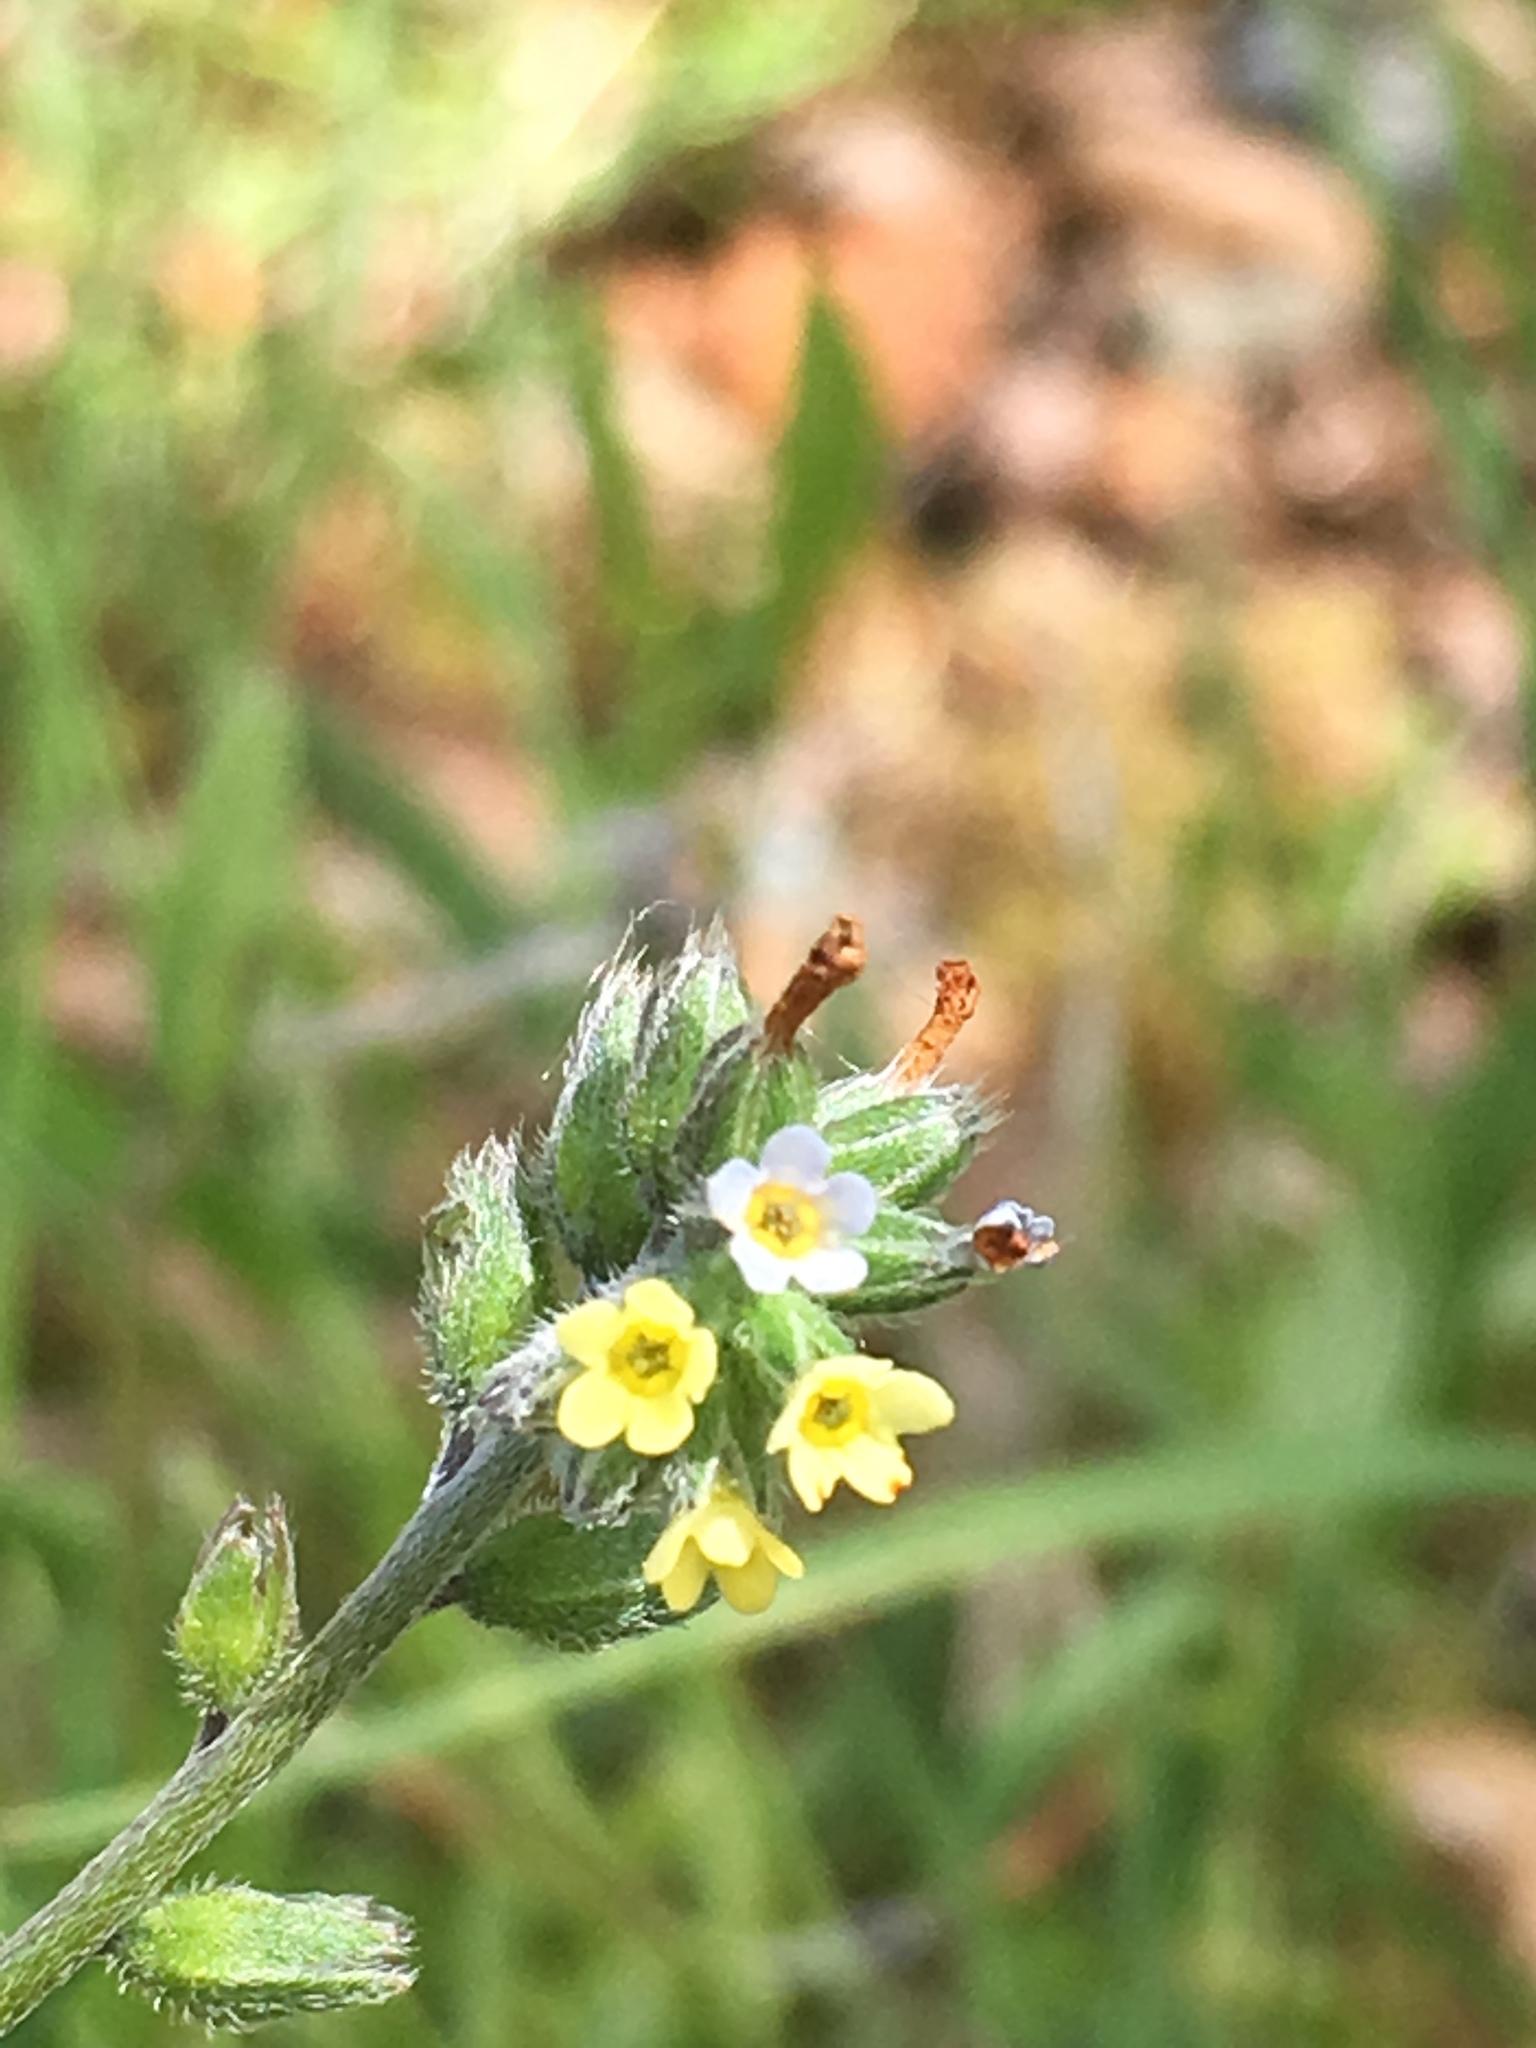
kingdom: Plantae
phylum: Tracheophyta
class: Magnoliopsida
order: Boraginales
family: Boraginaceae
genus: Myosotis
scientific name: Myosotis discolor
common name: Changing forget-me-not
